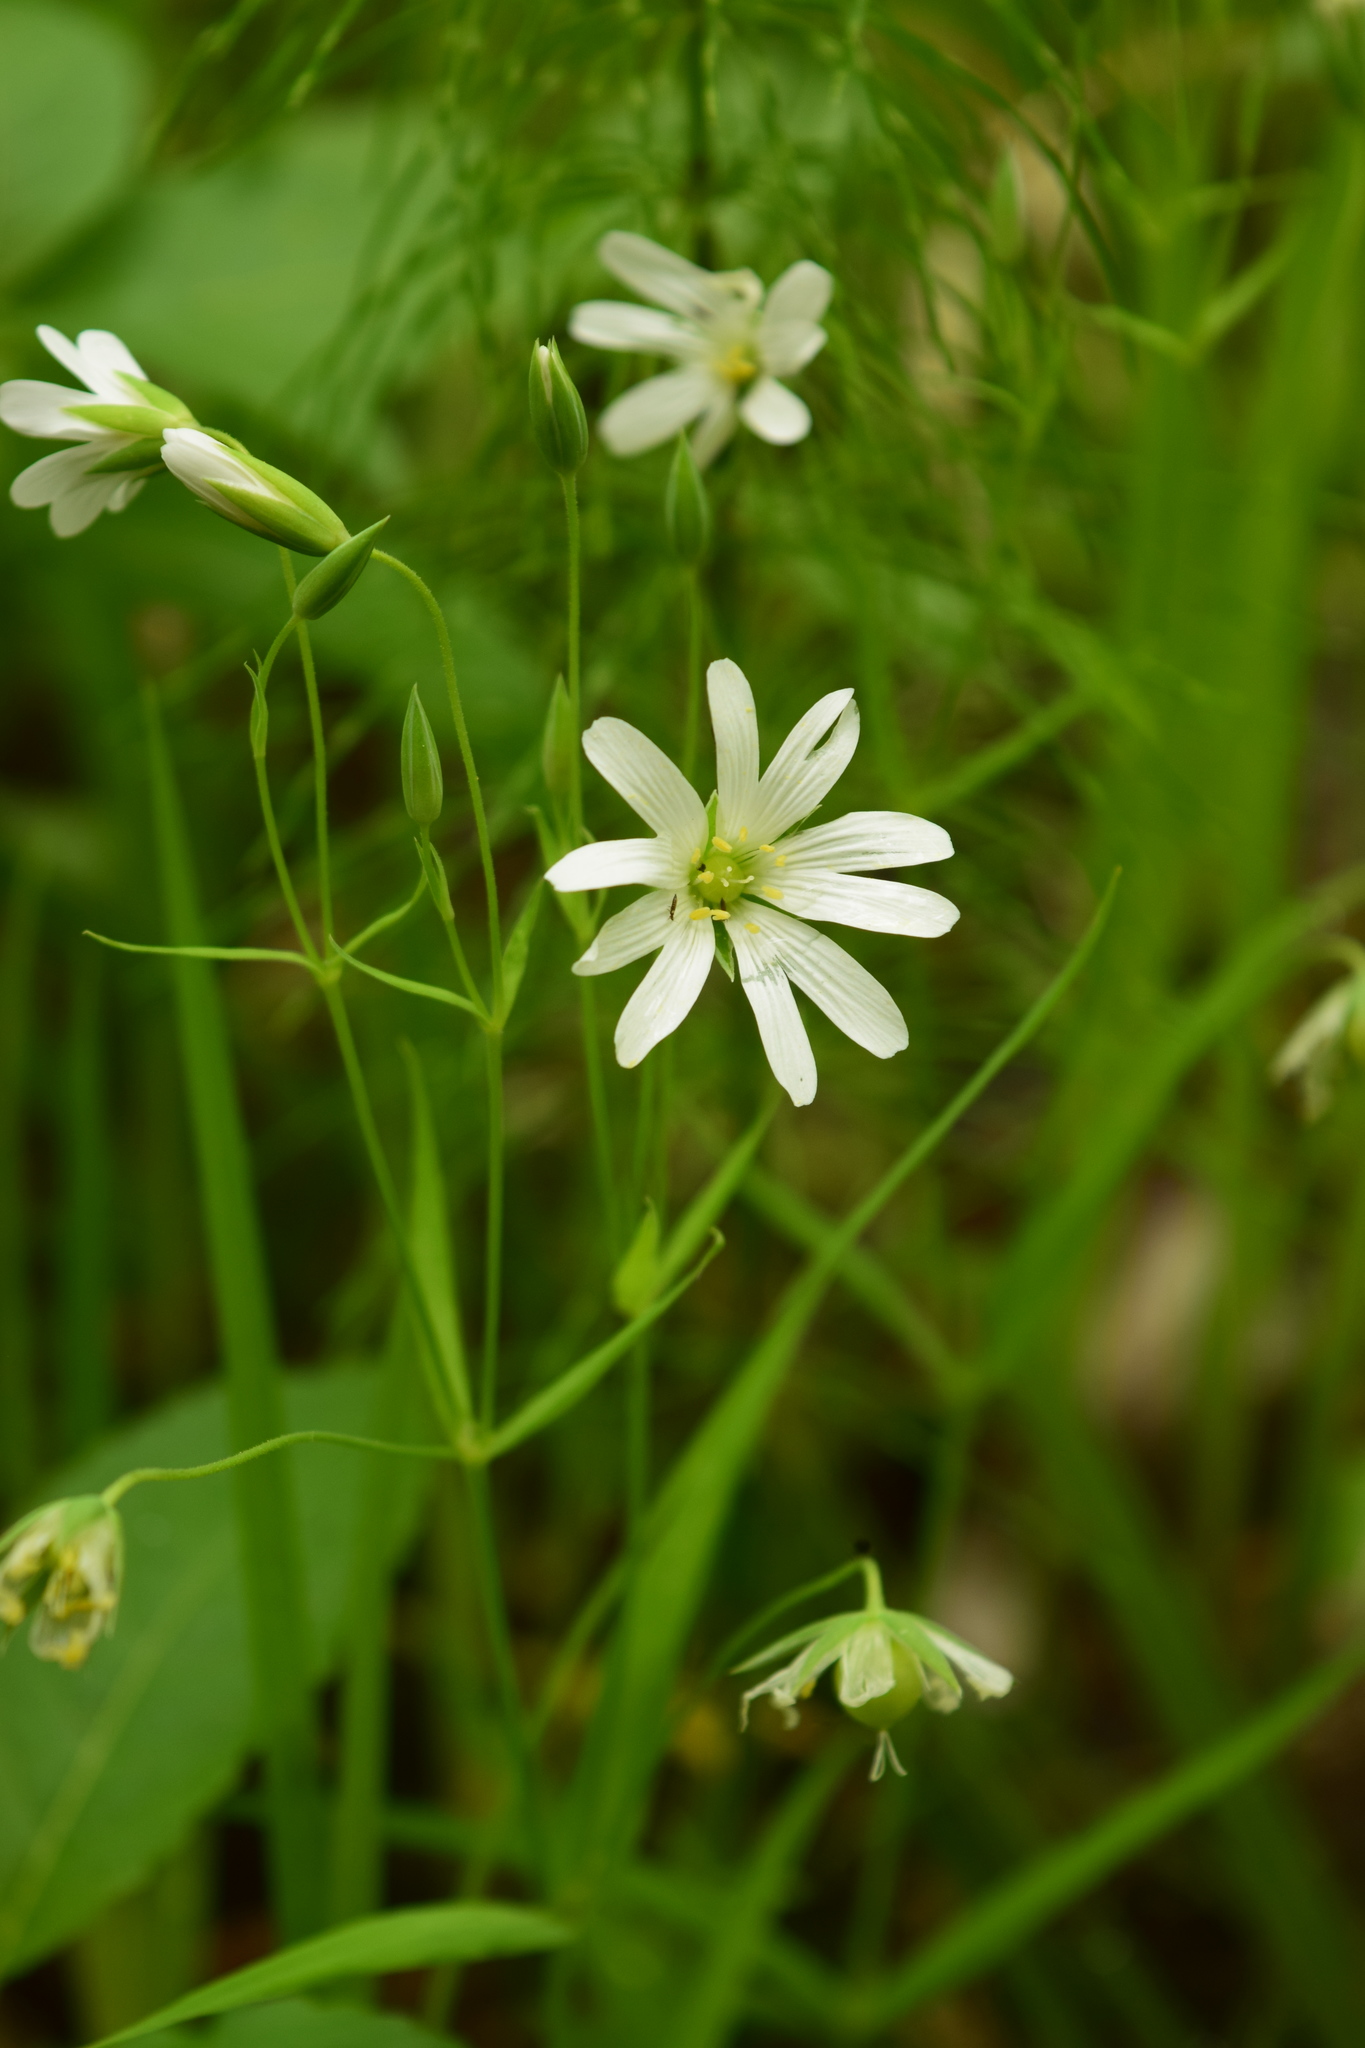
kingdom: Plantae
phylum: Tracheophyta
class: Magnoliopsida
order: Caryophyllales
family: Caryophyllaceae
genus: Rabelera
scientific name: Rabelera holostea
